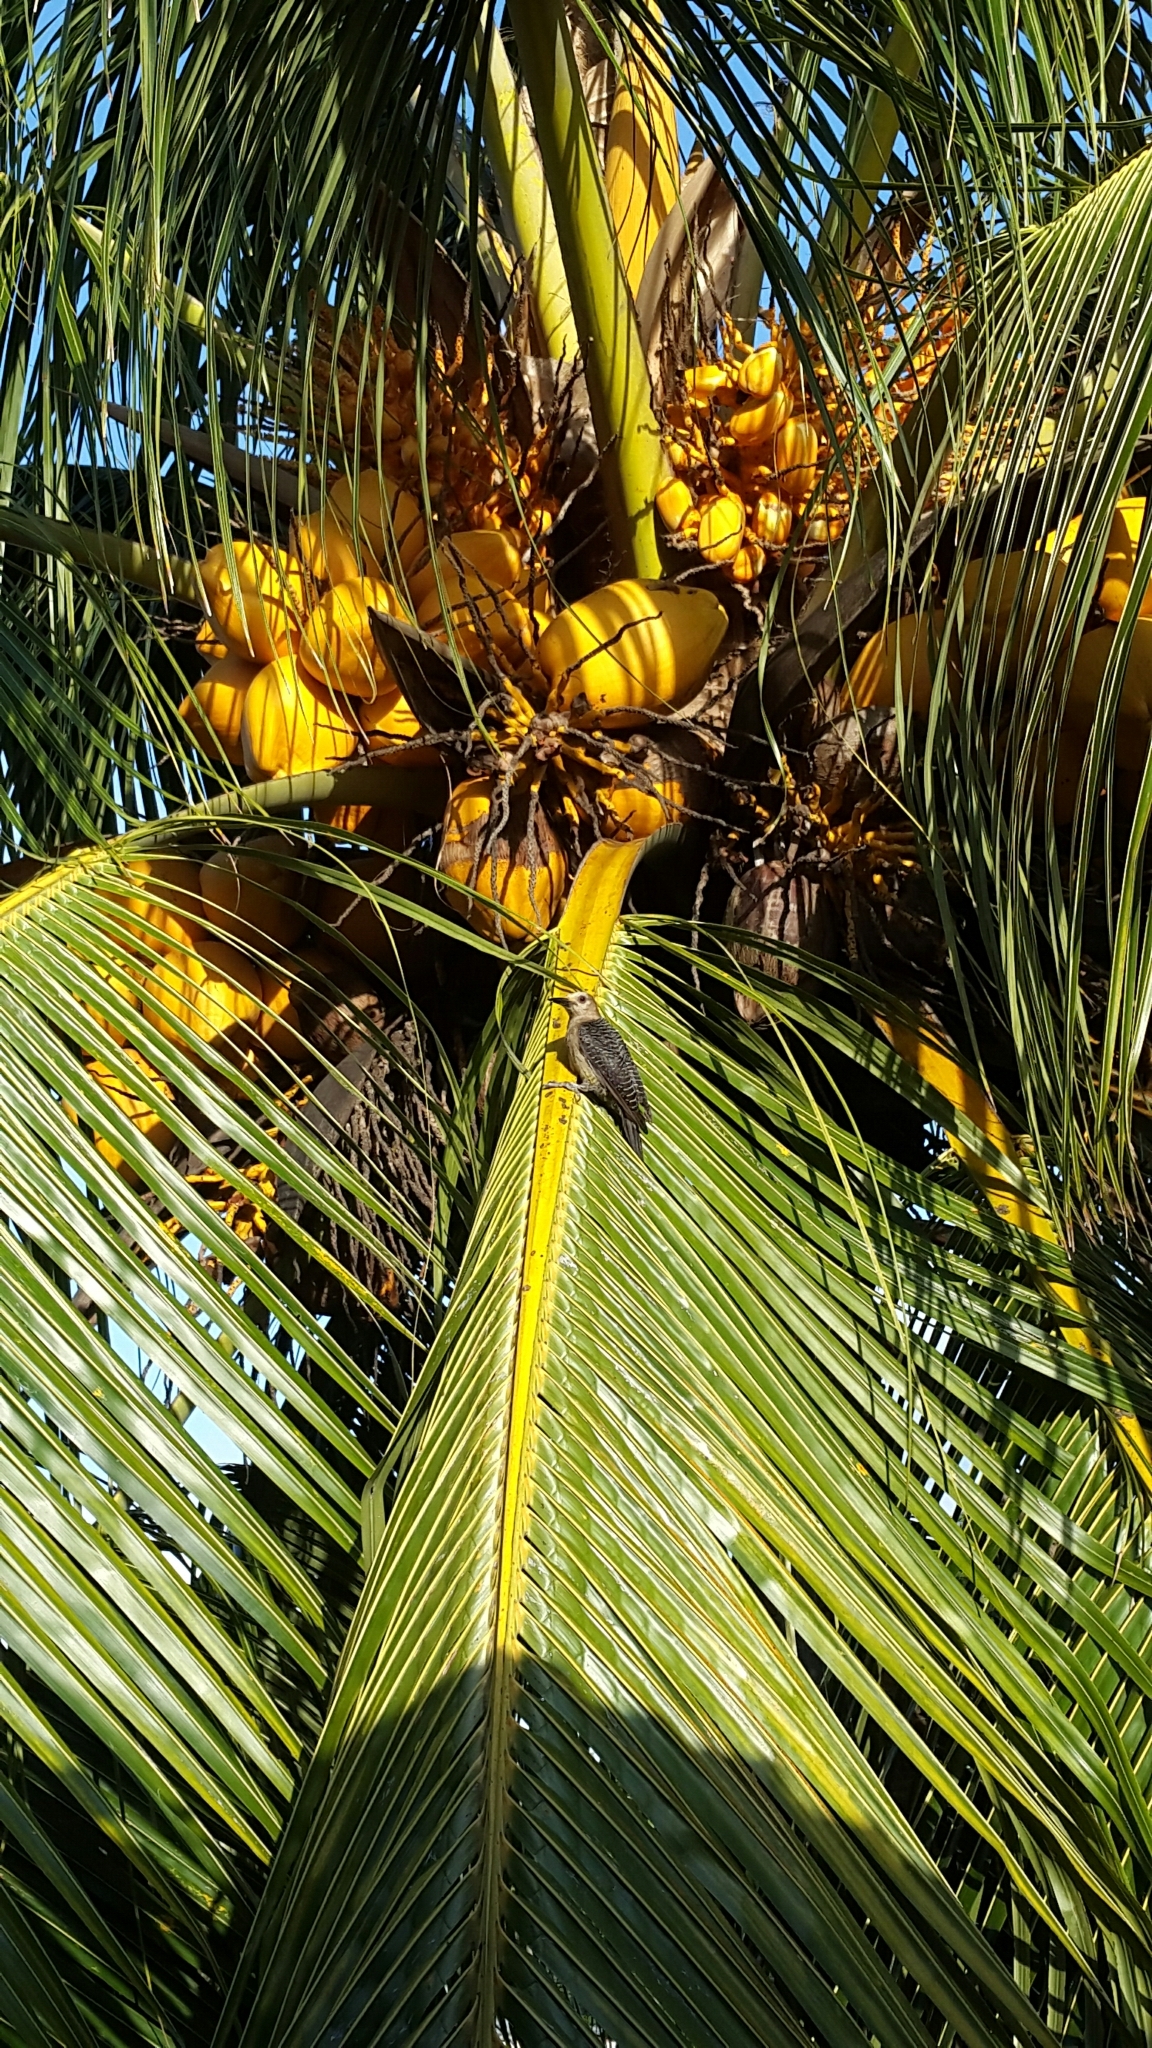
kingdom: Animalia
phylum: Chordata
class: Aves
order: Piciformes
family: Picidae
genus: Melanerpes
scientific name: Melanerpes aurifrons
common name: Golden-fronted woodpecker
